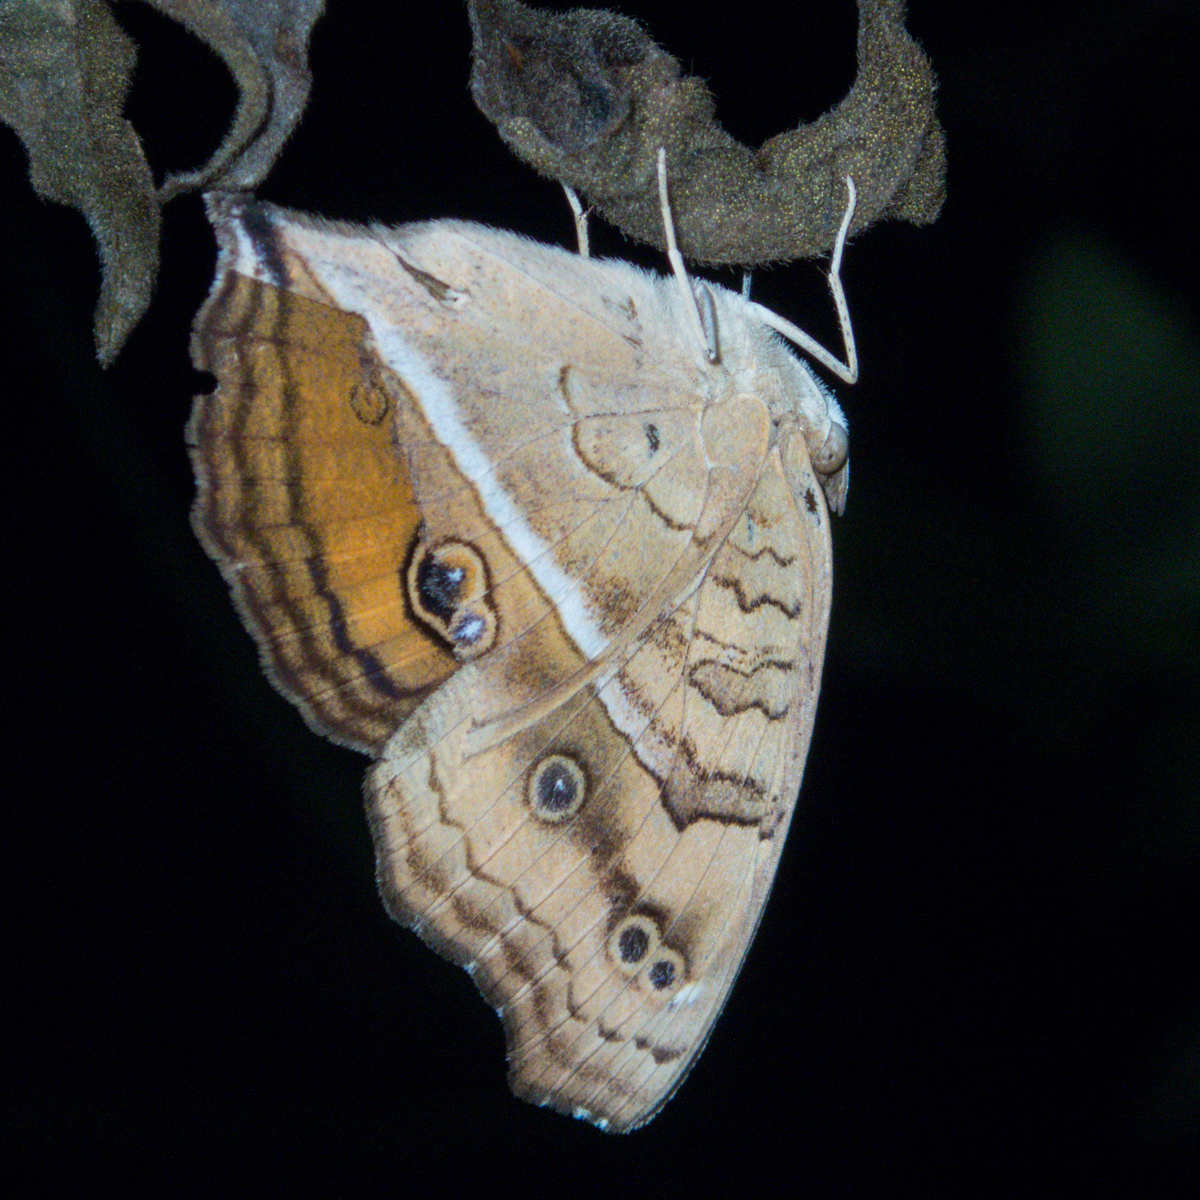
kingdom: Animalia
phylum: Arthropoda
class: Insecta
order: Lepidoptera
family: Nymphalidae
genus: Junonia
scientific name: Junonia almana
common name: Peacock pansy
